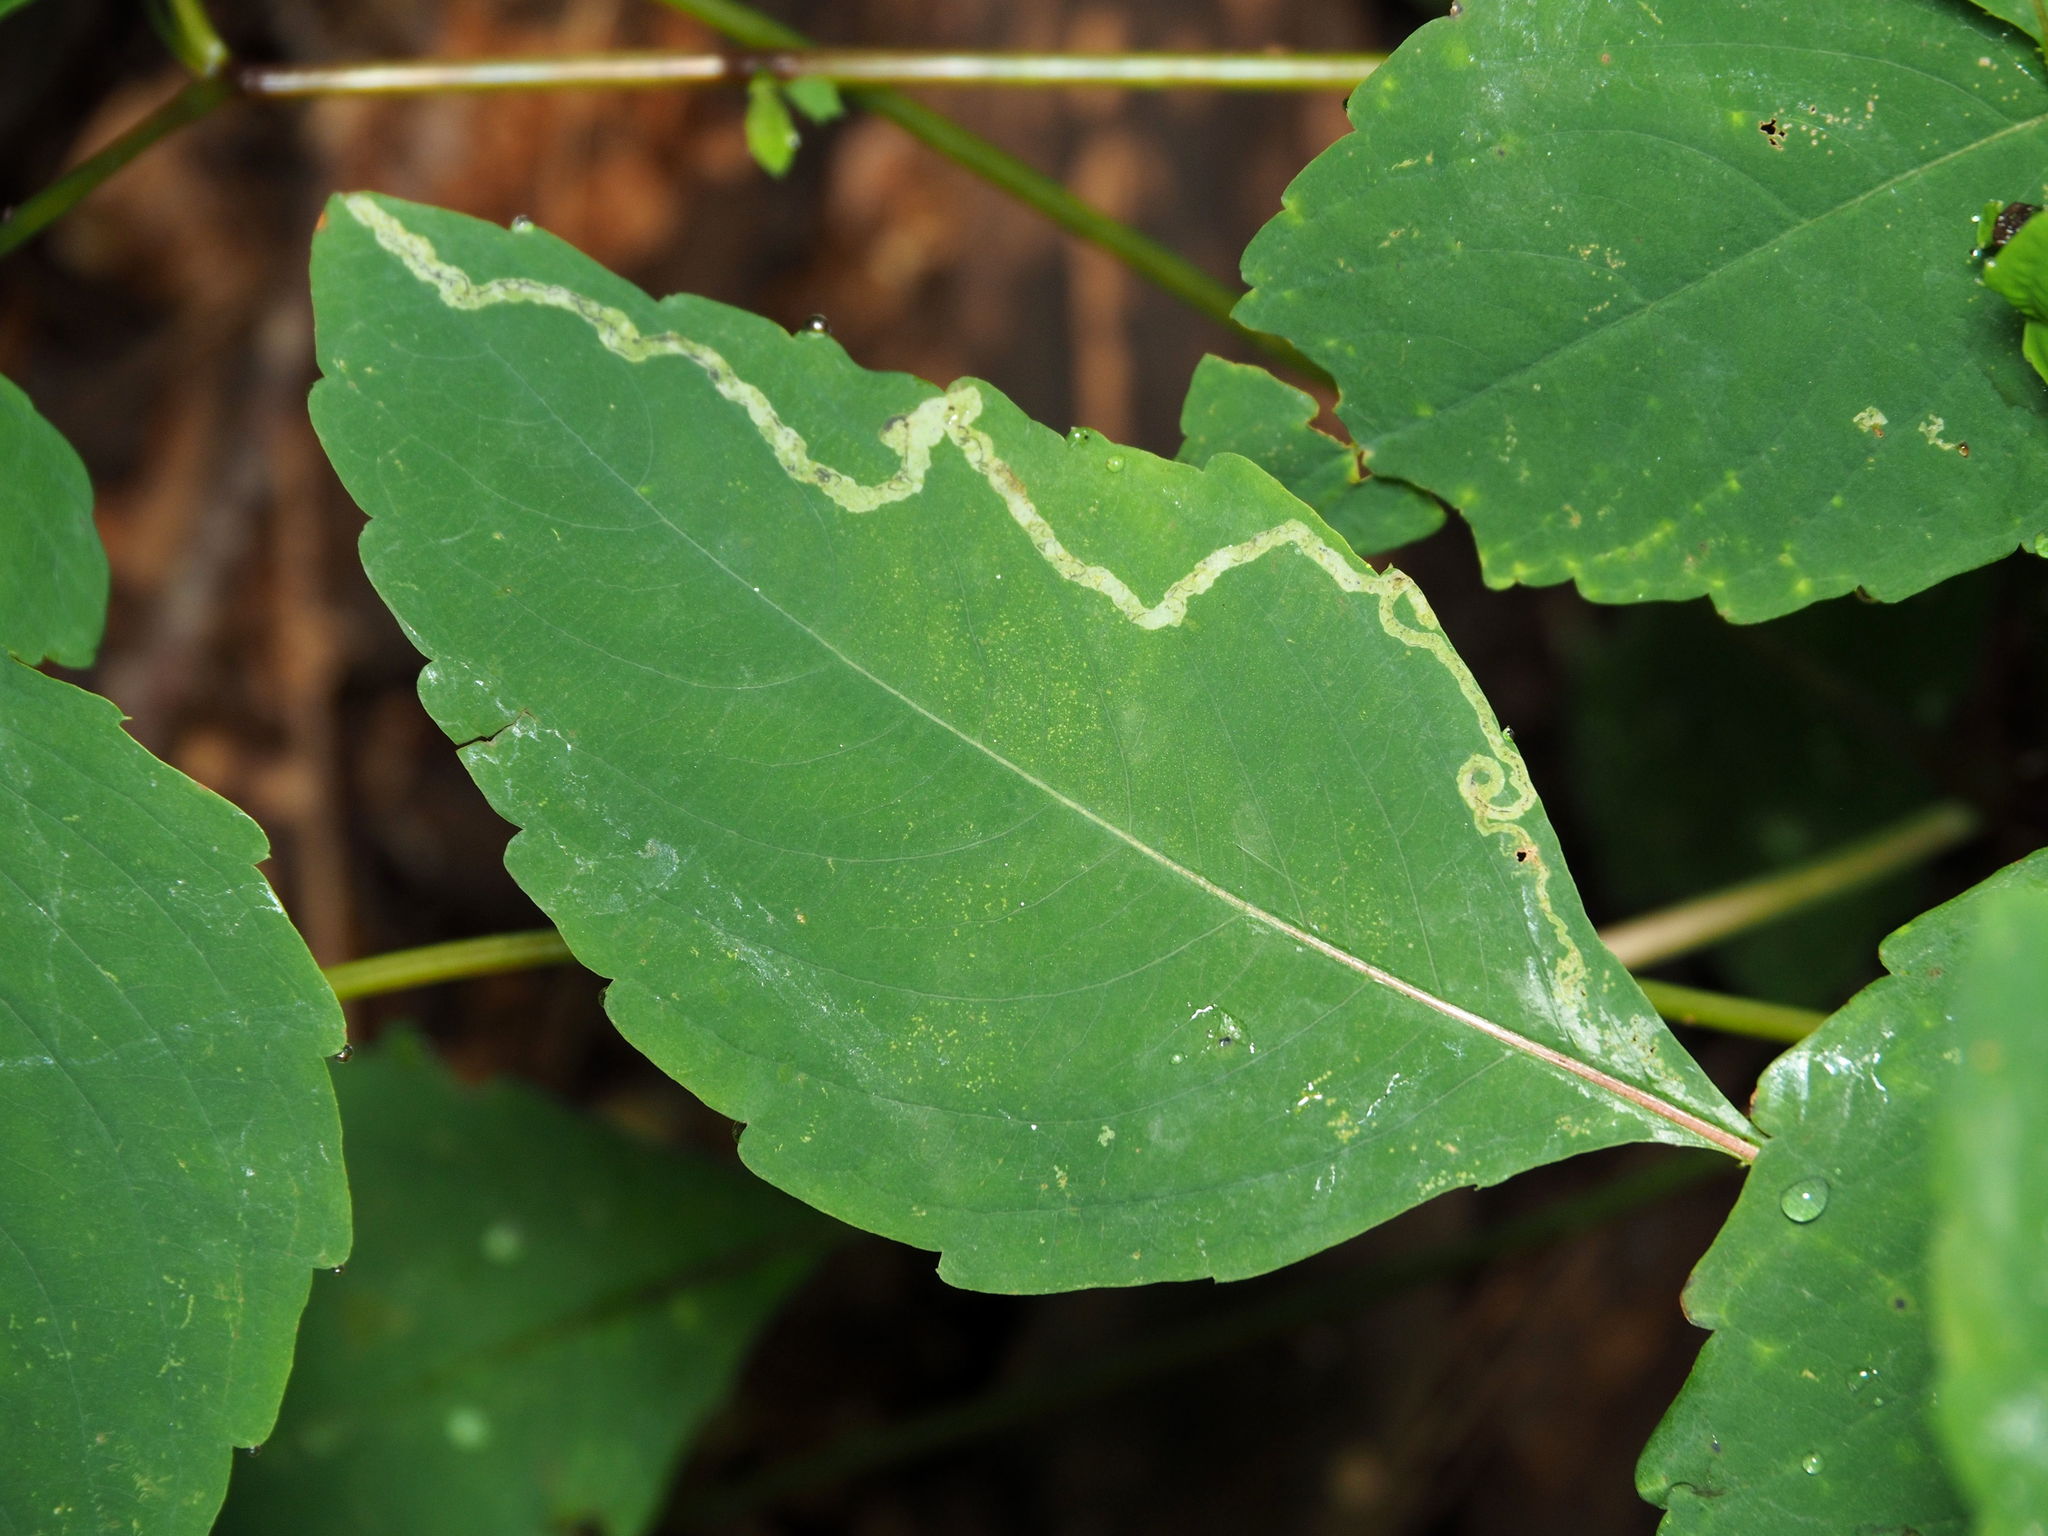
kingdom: Animalia
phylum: Arthropoda
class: Insecta
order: Diptera
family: Agromyzidae
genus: Phytoliriomyza
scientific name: Phytoliriomyza melampyga
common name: Jewelweed leaf-miner fly
